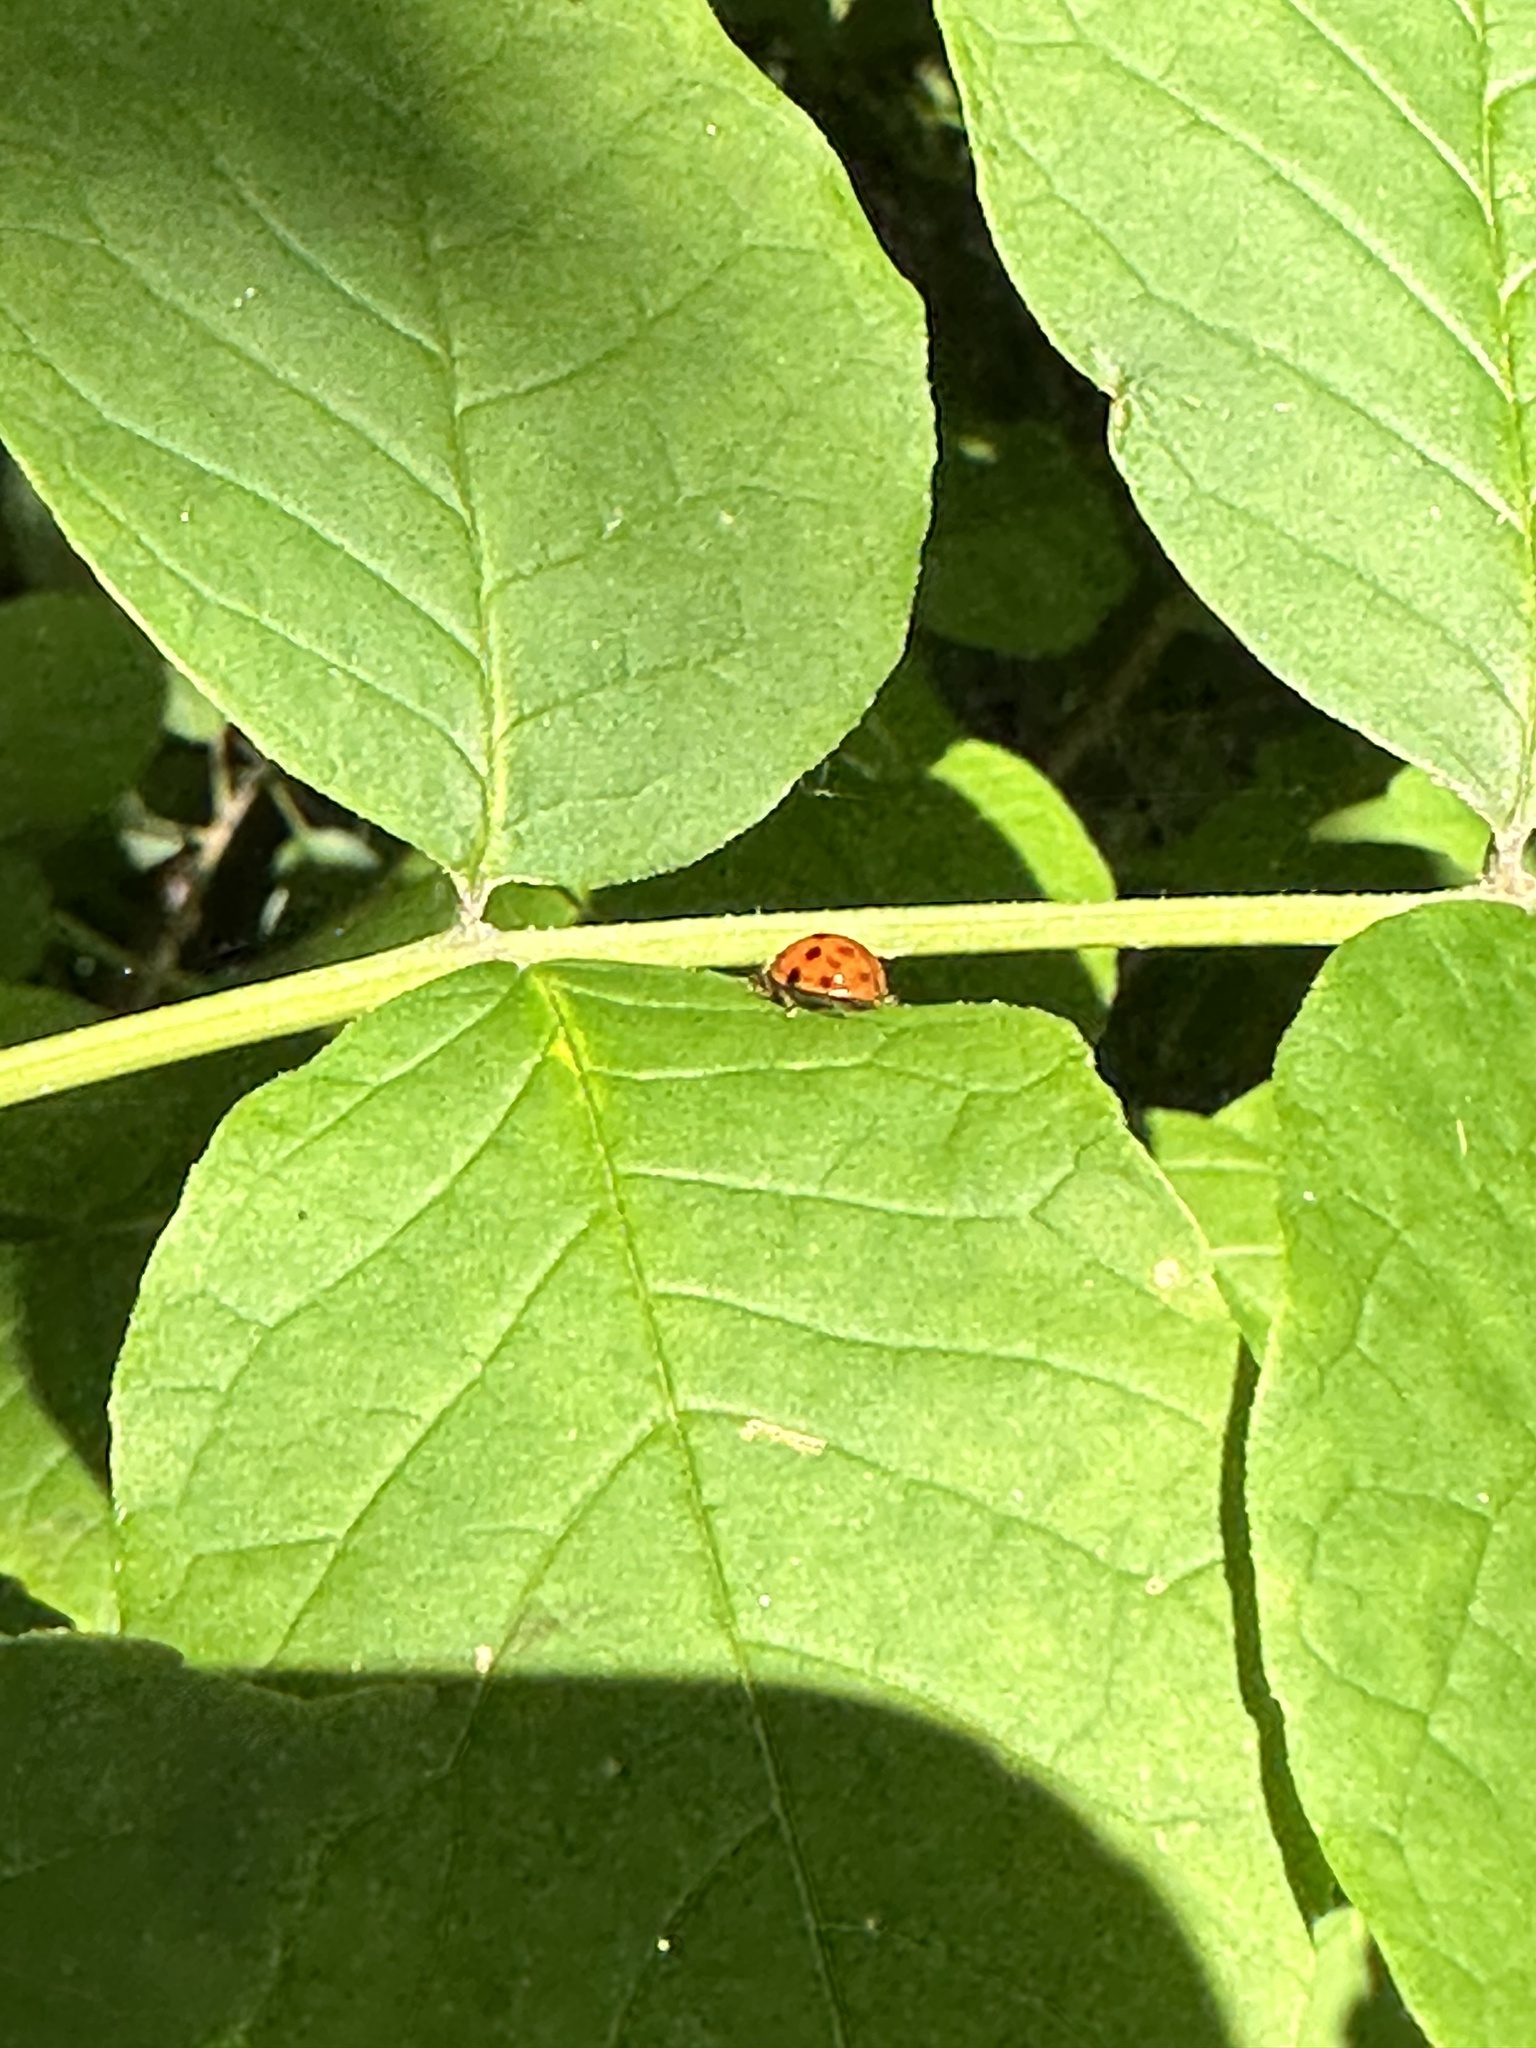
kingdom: Animalia
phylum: Arthropoda
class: Insecta
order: Coleoptera
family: Coccinellidae
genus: Harmonia
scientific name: Harmonia axyridis
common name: Harlequin ladybird
